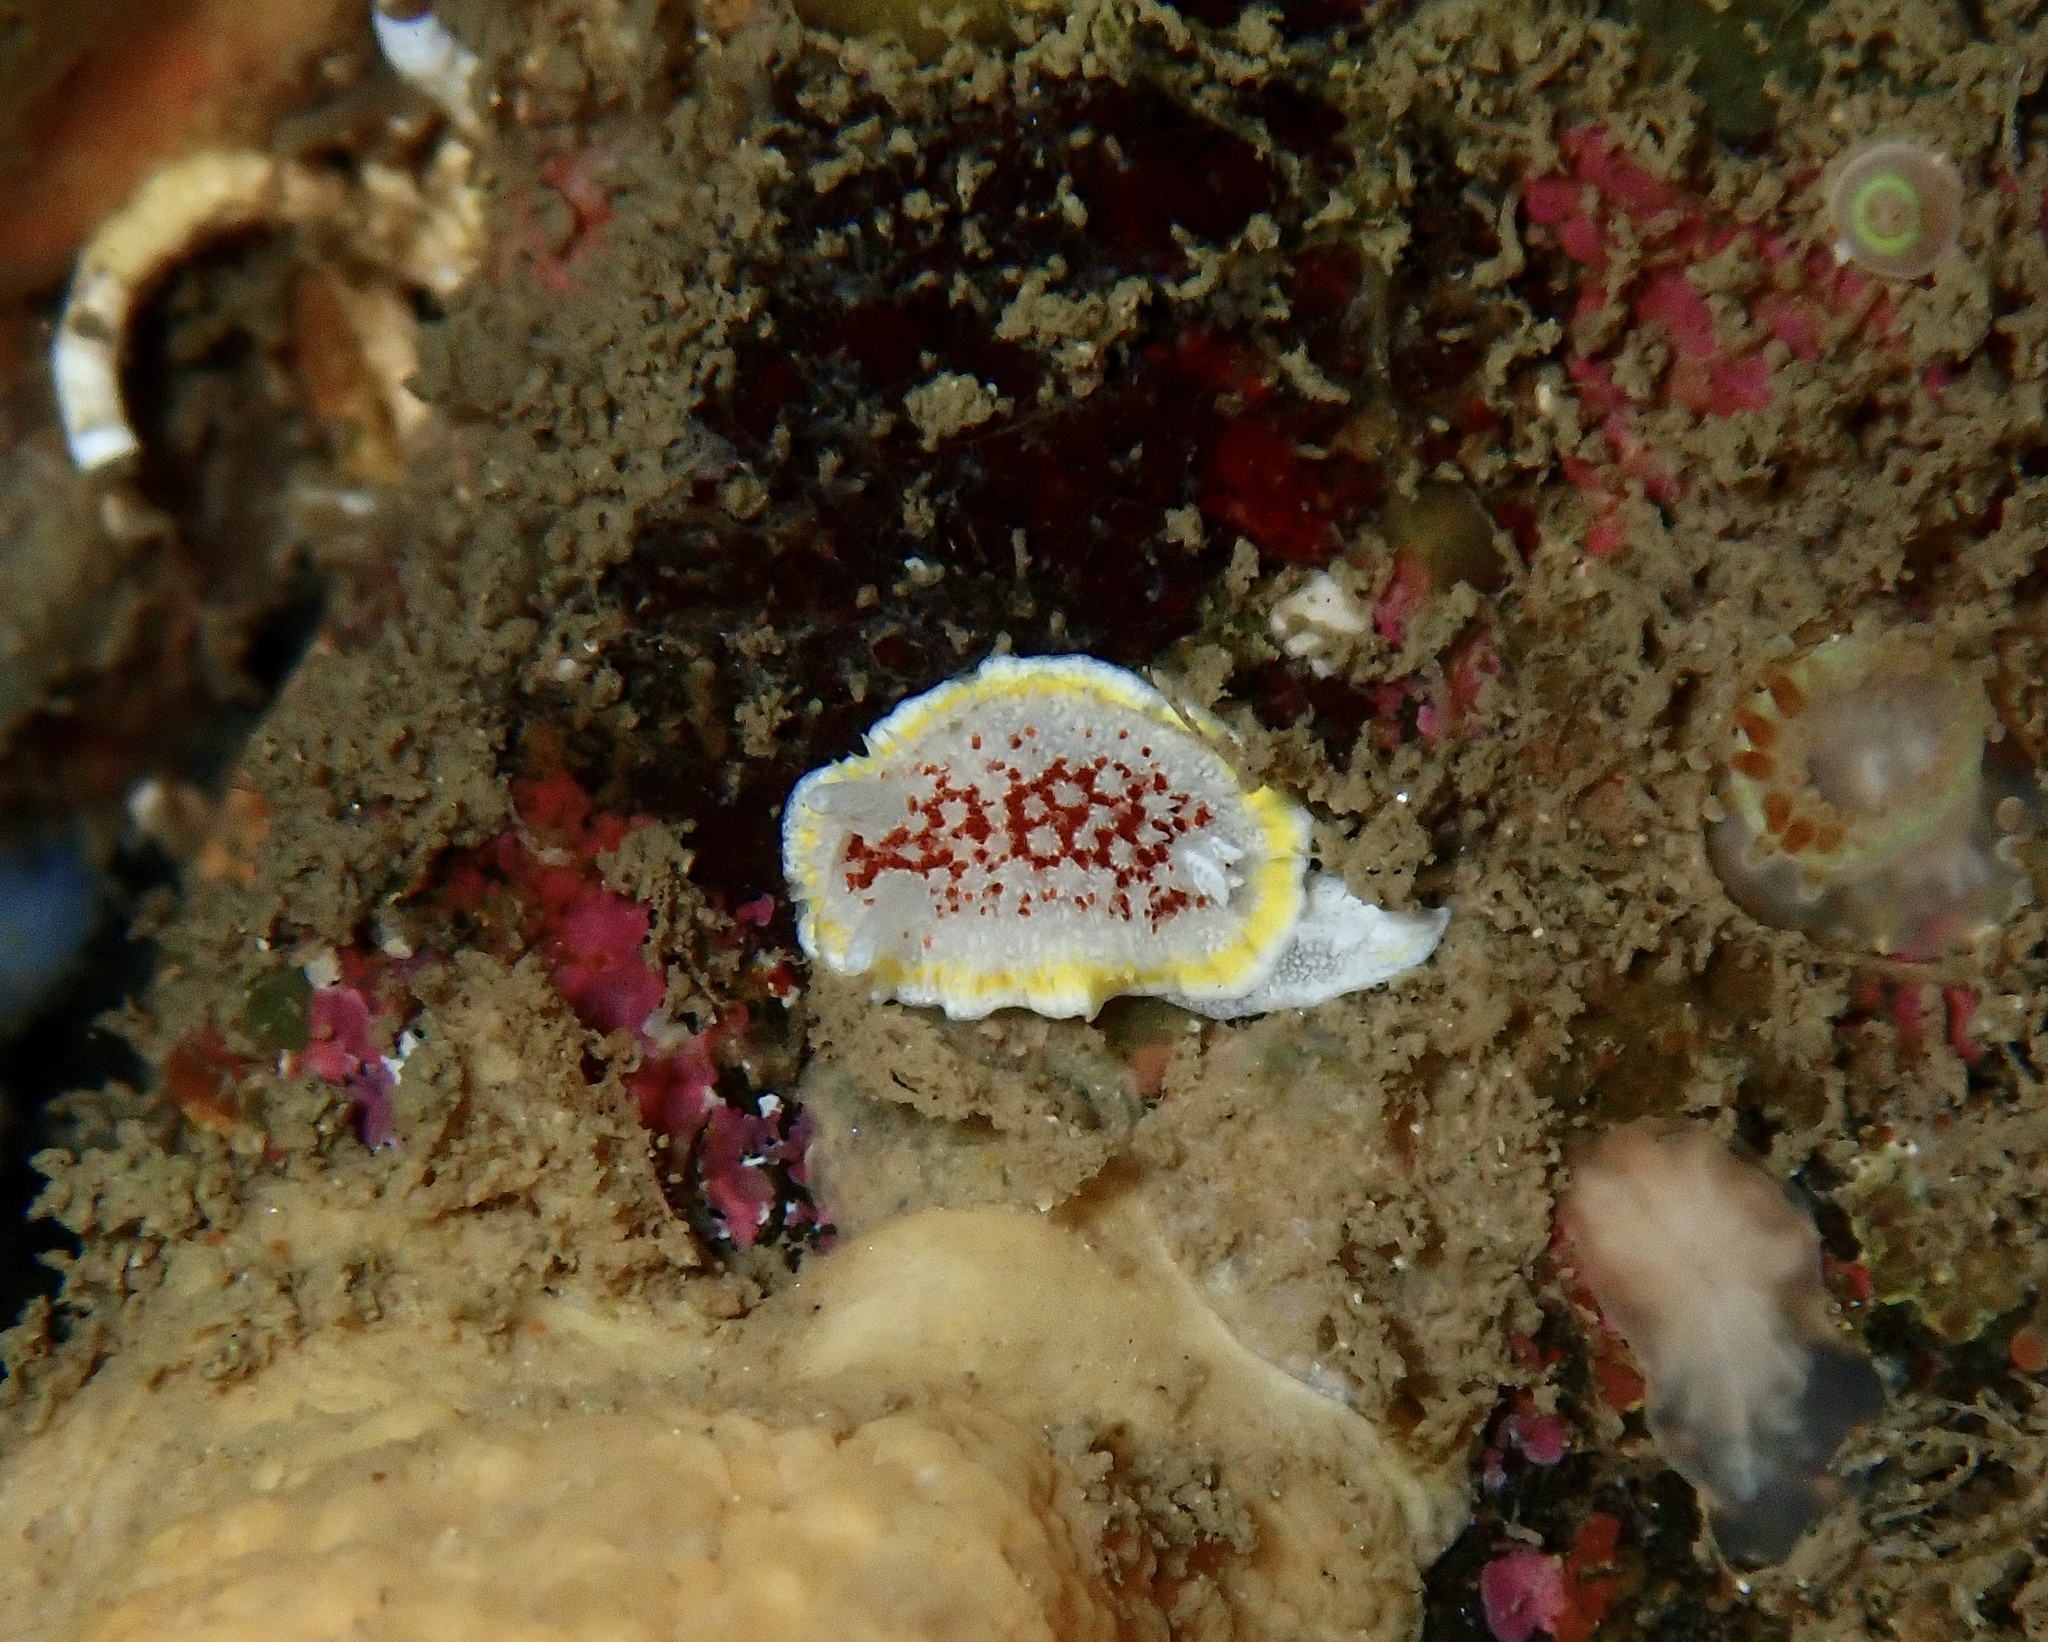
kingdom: Animalia
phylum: Mollusca
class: Gastropoda
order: Nudibranchia
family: Calycidorididae
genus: Diaphorodoris
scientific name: Diaphorodoris luteocincta
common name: Fried egg nudibranch
